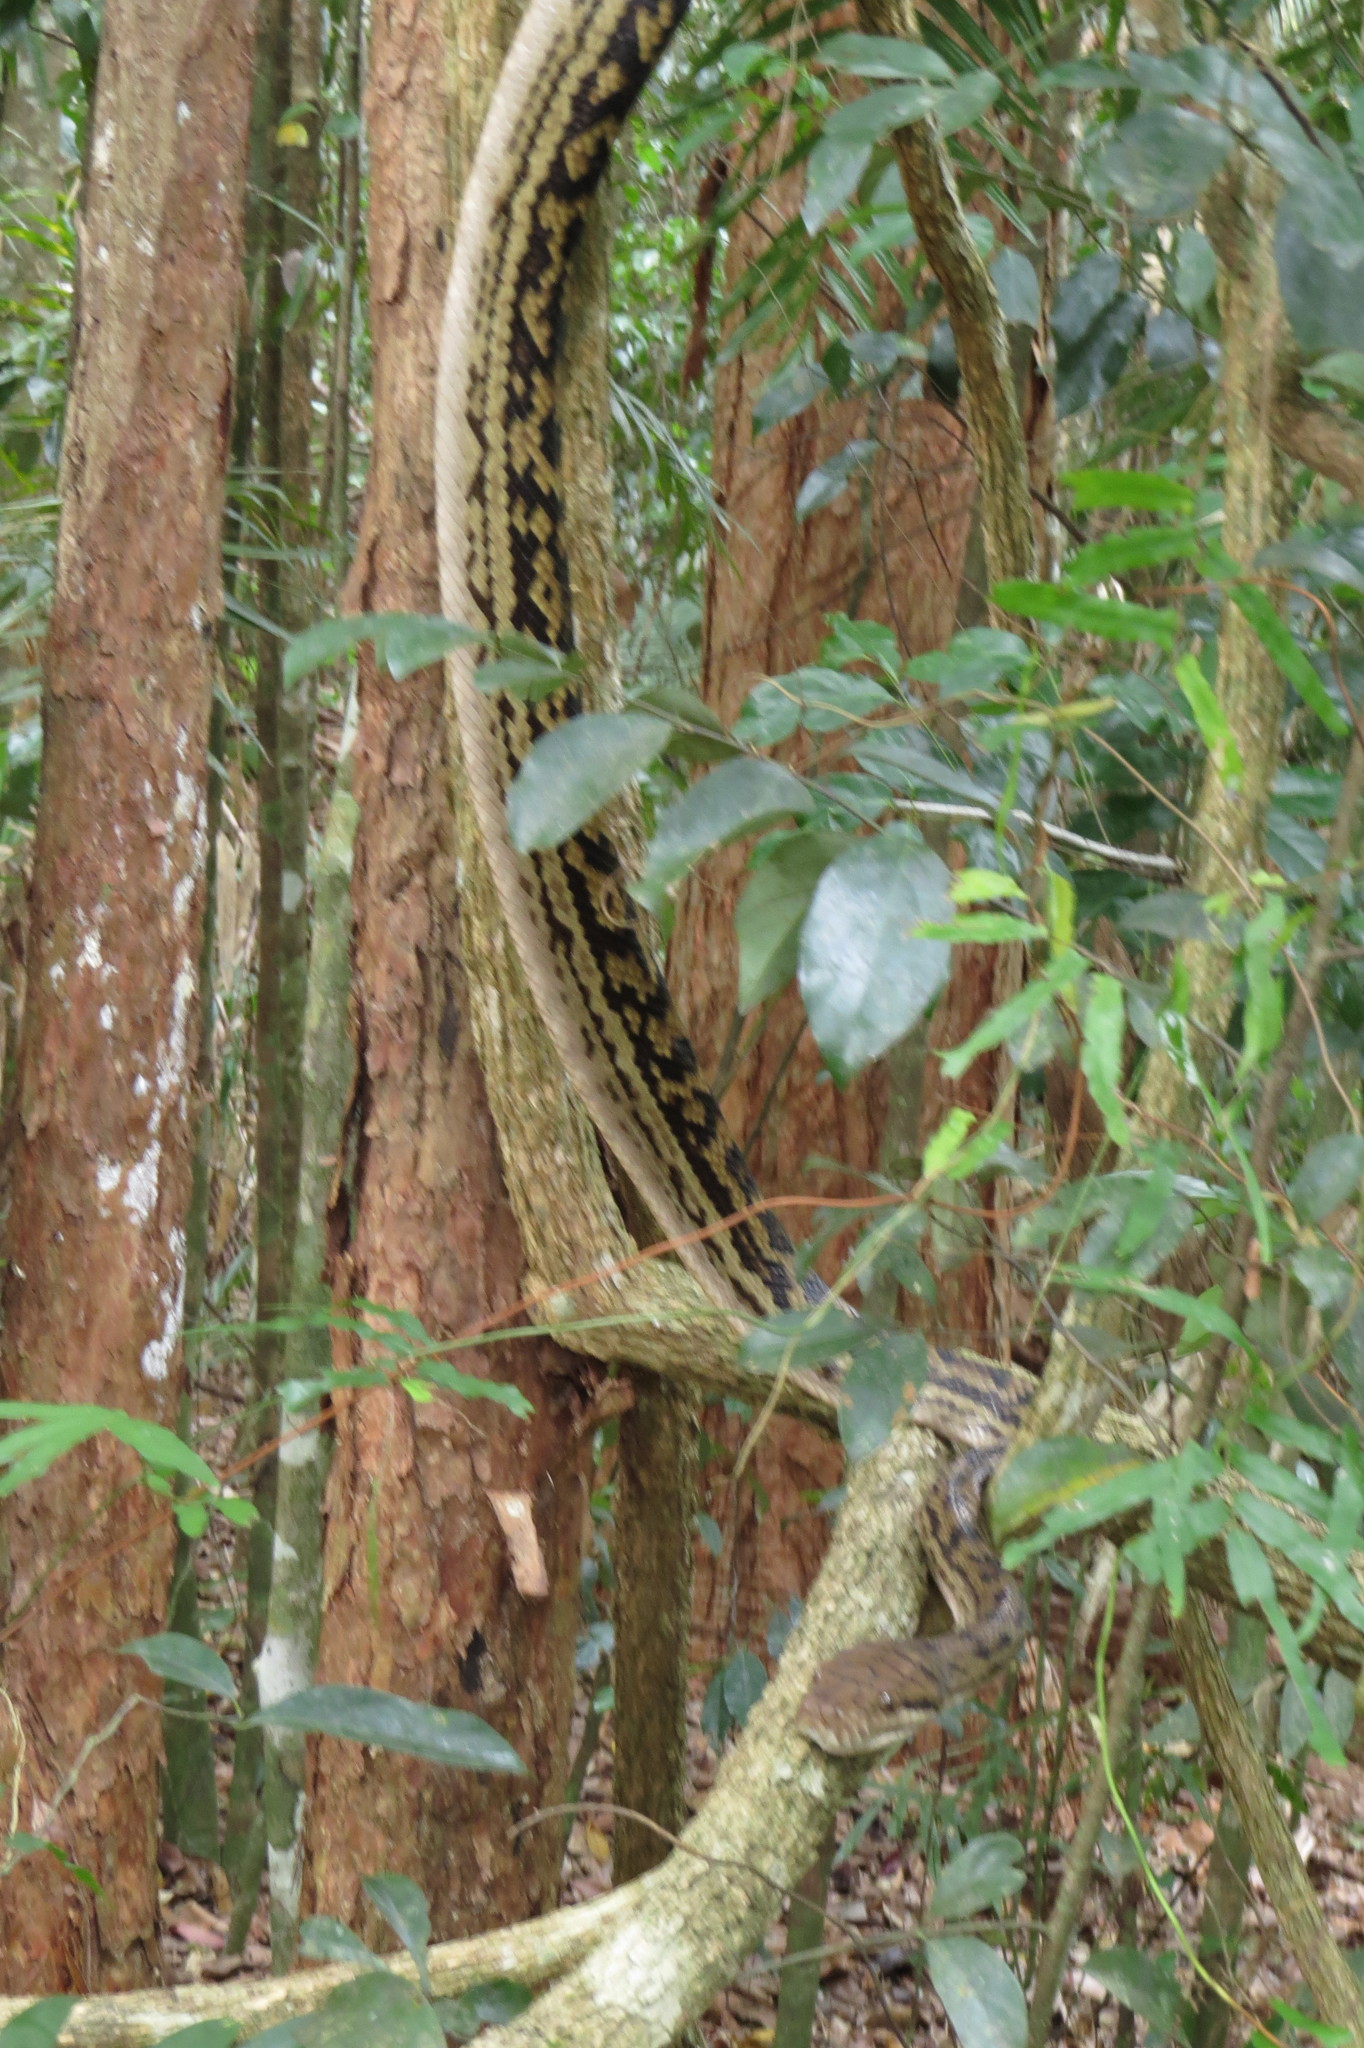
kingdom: Animalia
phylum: Chordata
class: Squamata
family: Pythonidae
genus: Simalia
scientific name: Simalia kinghorni
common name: Scrub python
